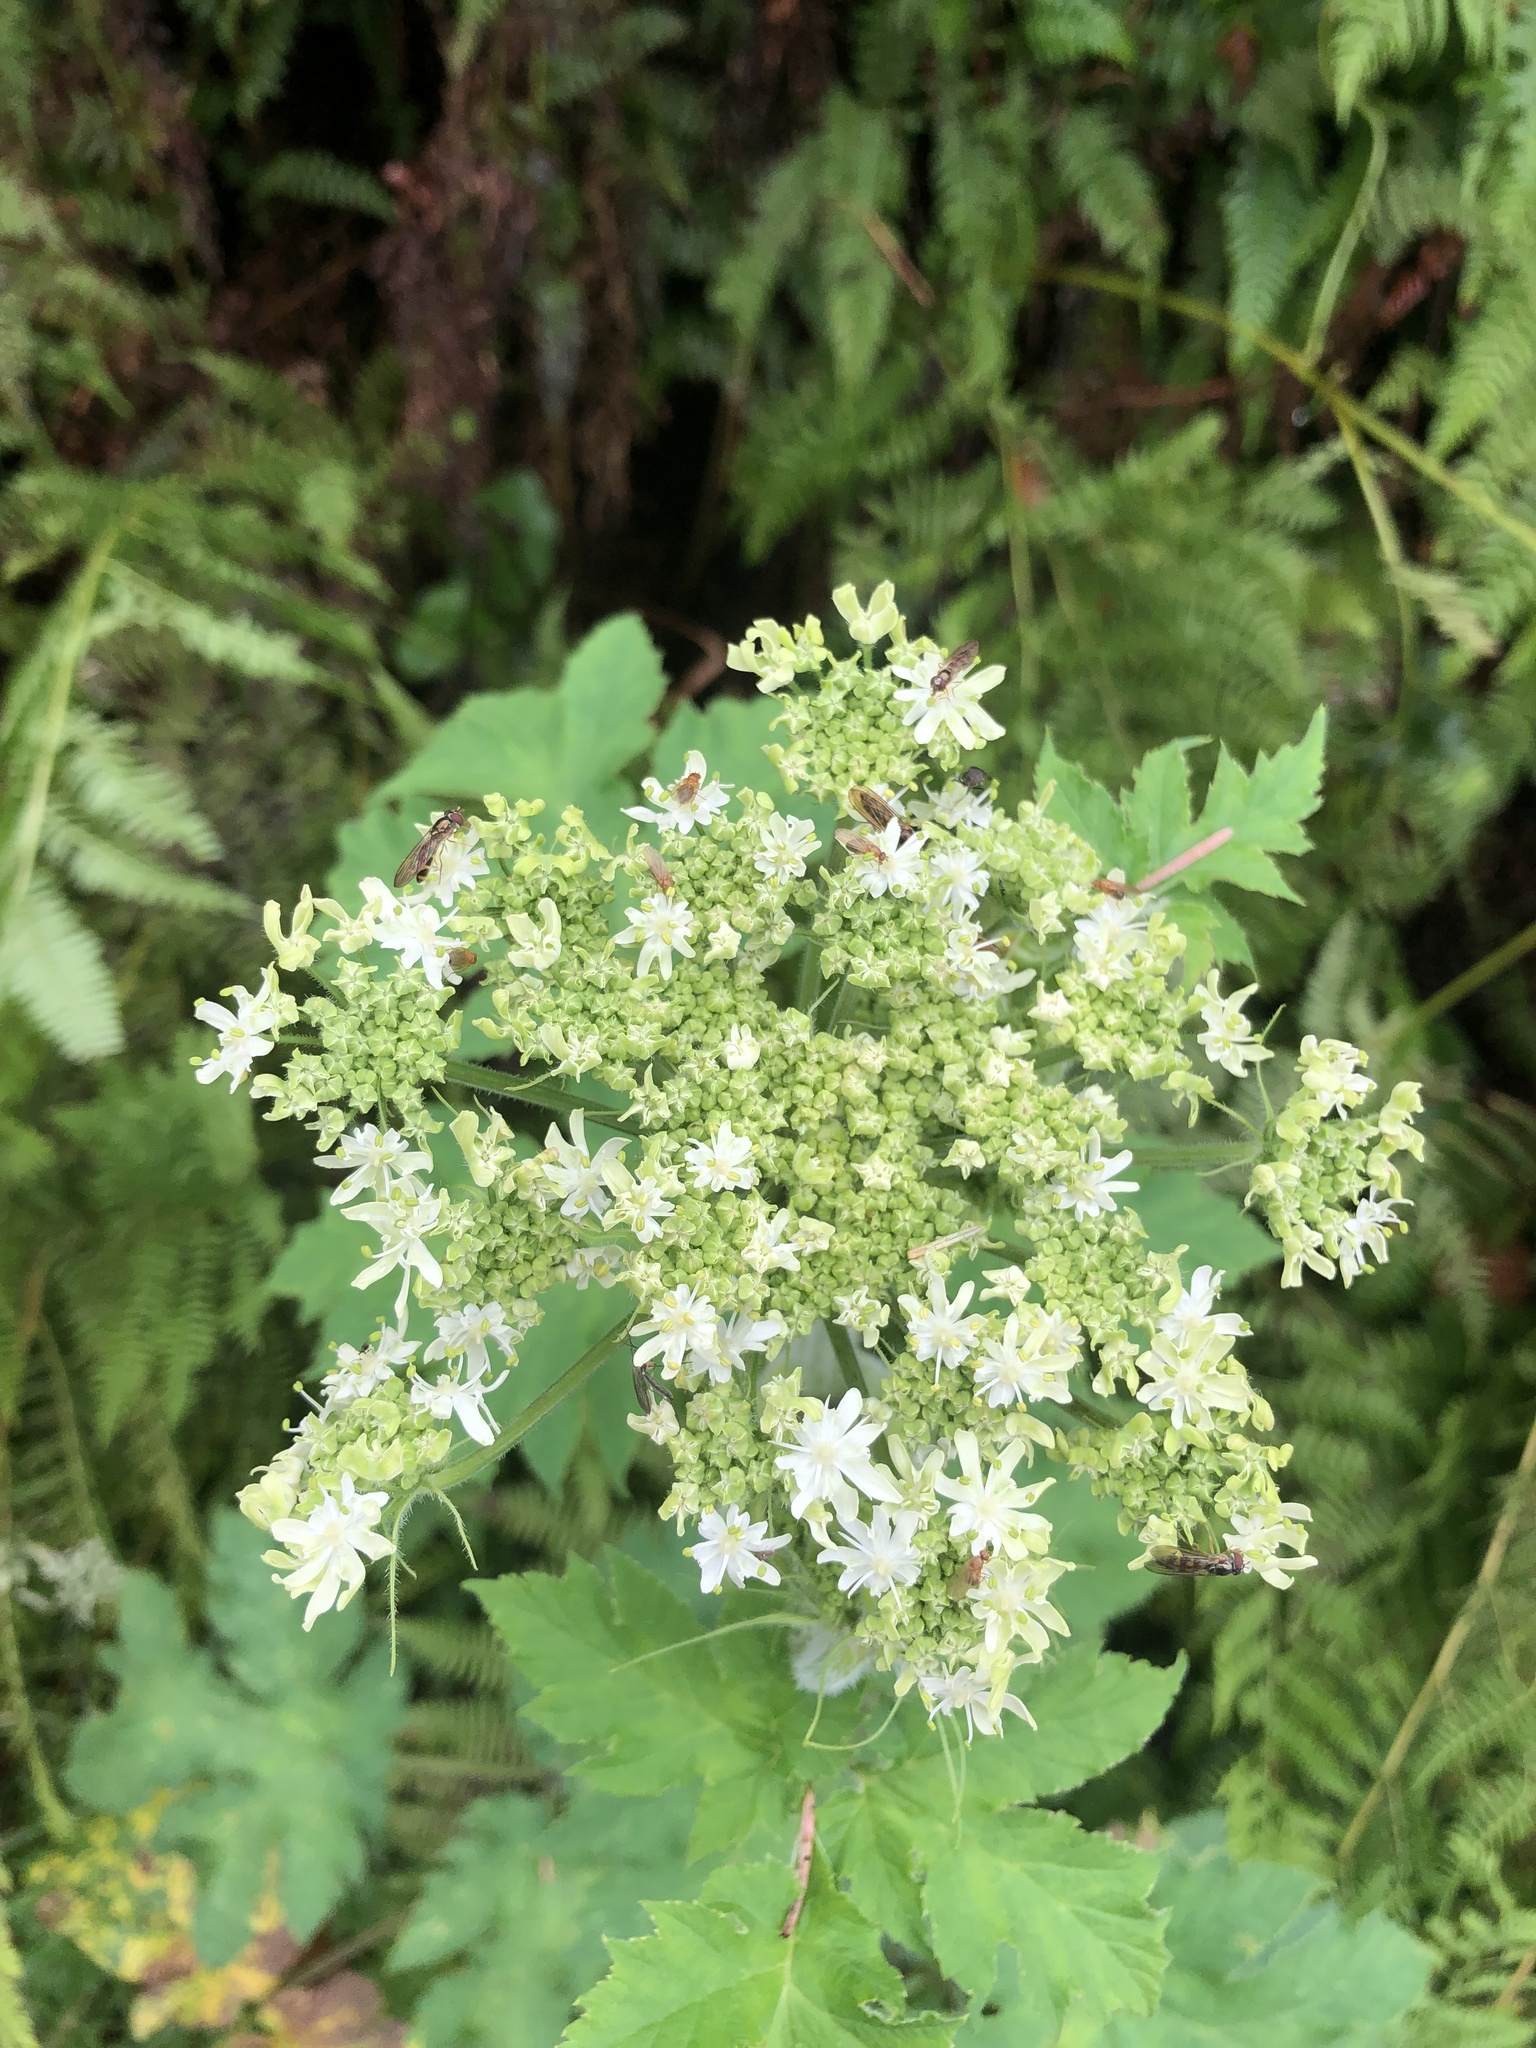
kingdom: Plantae
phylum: Tracheophyta
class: Magnoliopsida
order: Apiales
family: Apiaceae
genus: Heracleum
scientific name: Heracleum maximum
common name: American cow parsnip
